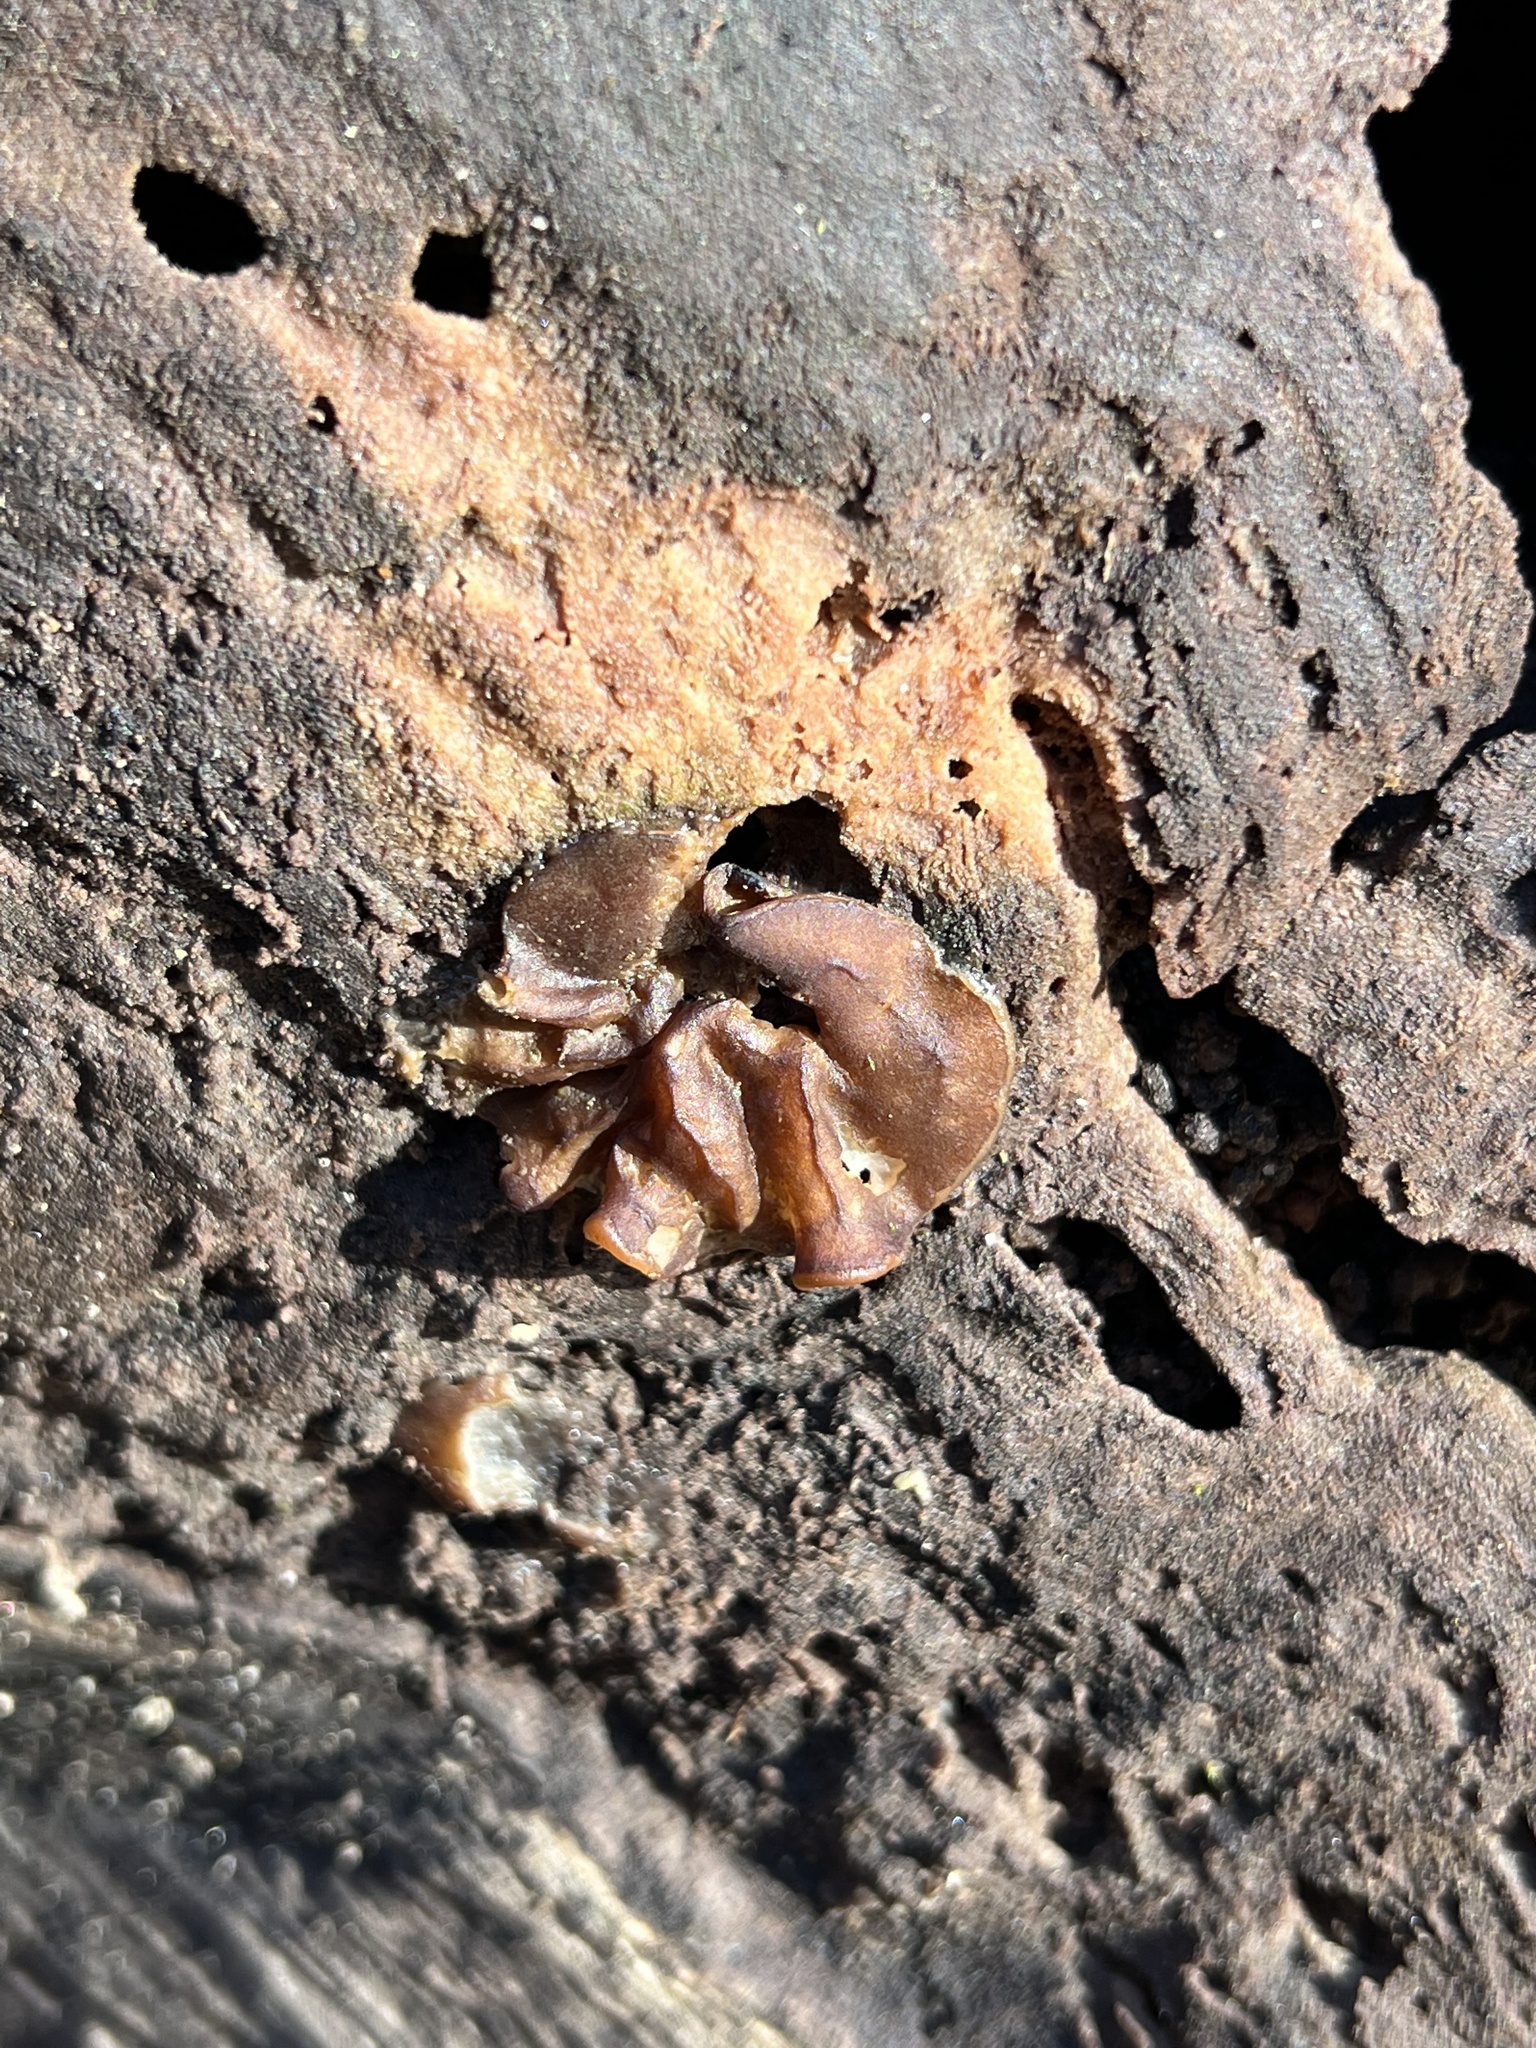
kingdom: Fungi
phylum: Ascomycota
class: Pezizomycetes
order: Pezizales
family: Pezizaceae
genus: Pachyella
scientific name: Pachyella clypeata
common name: Copper penny fungus
